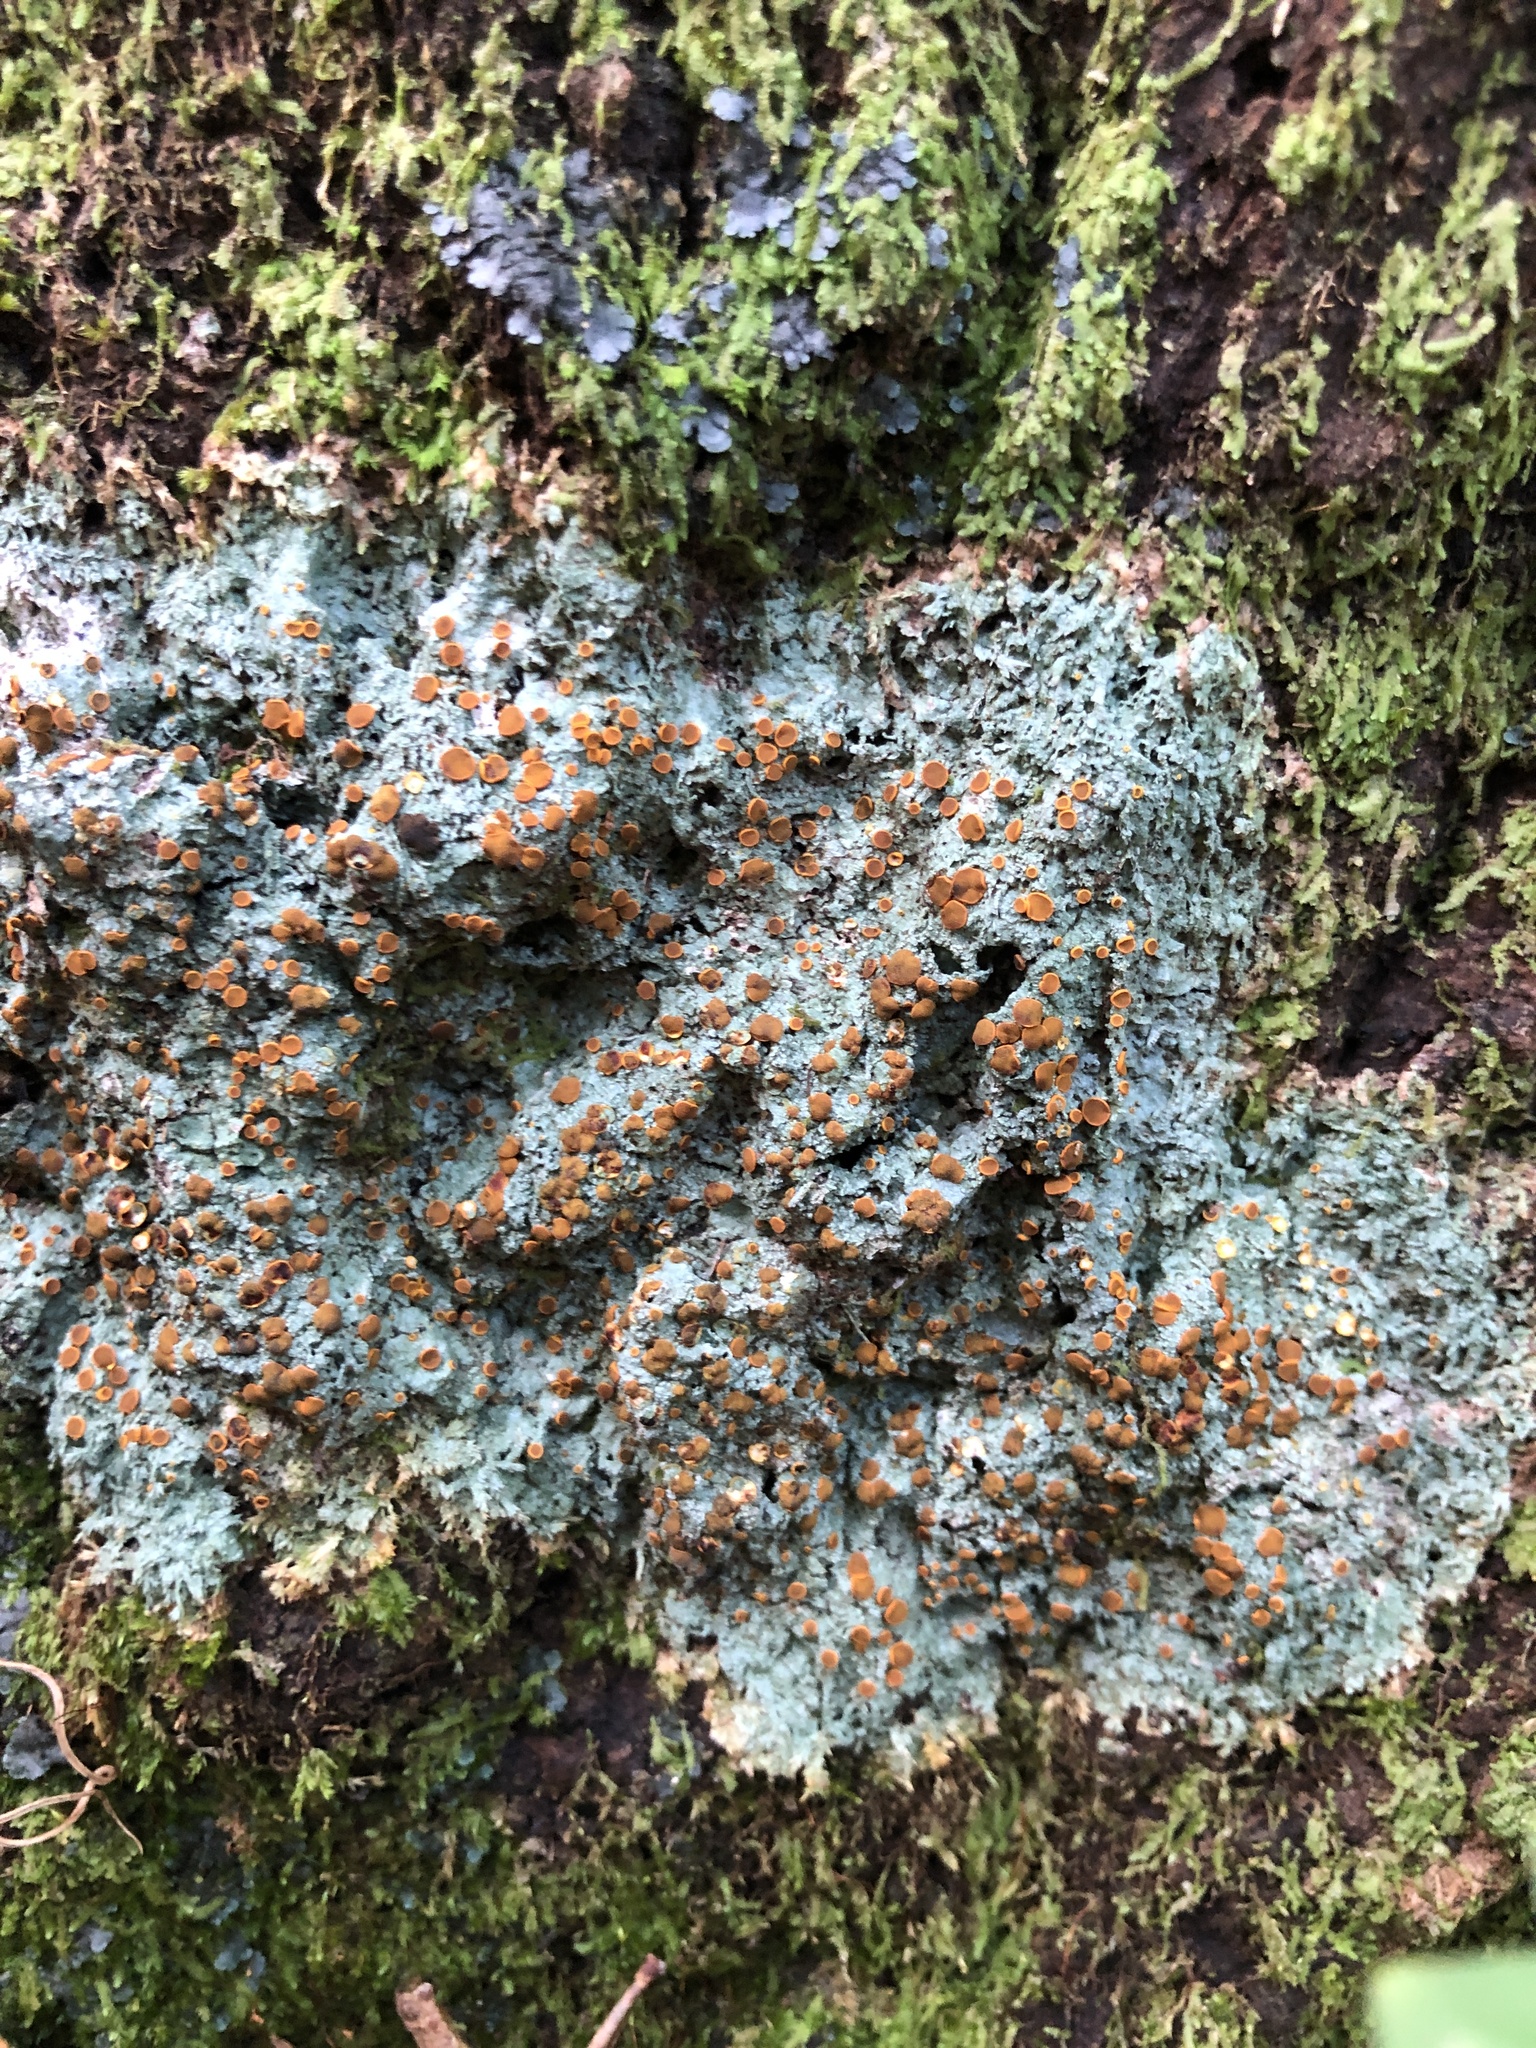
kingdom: Fungi
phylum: Ascomycota
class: Lecanoromycetes
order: Teloschistales
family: Brigantiaeaceae
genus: Brigantiaea
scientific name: Brigantiaea leucoxantha
